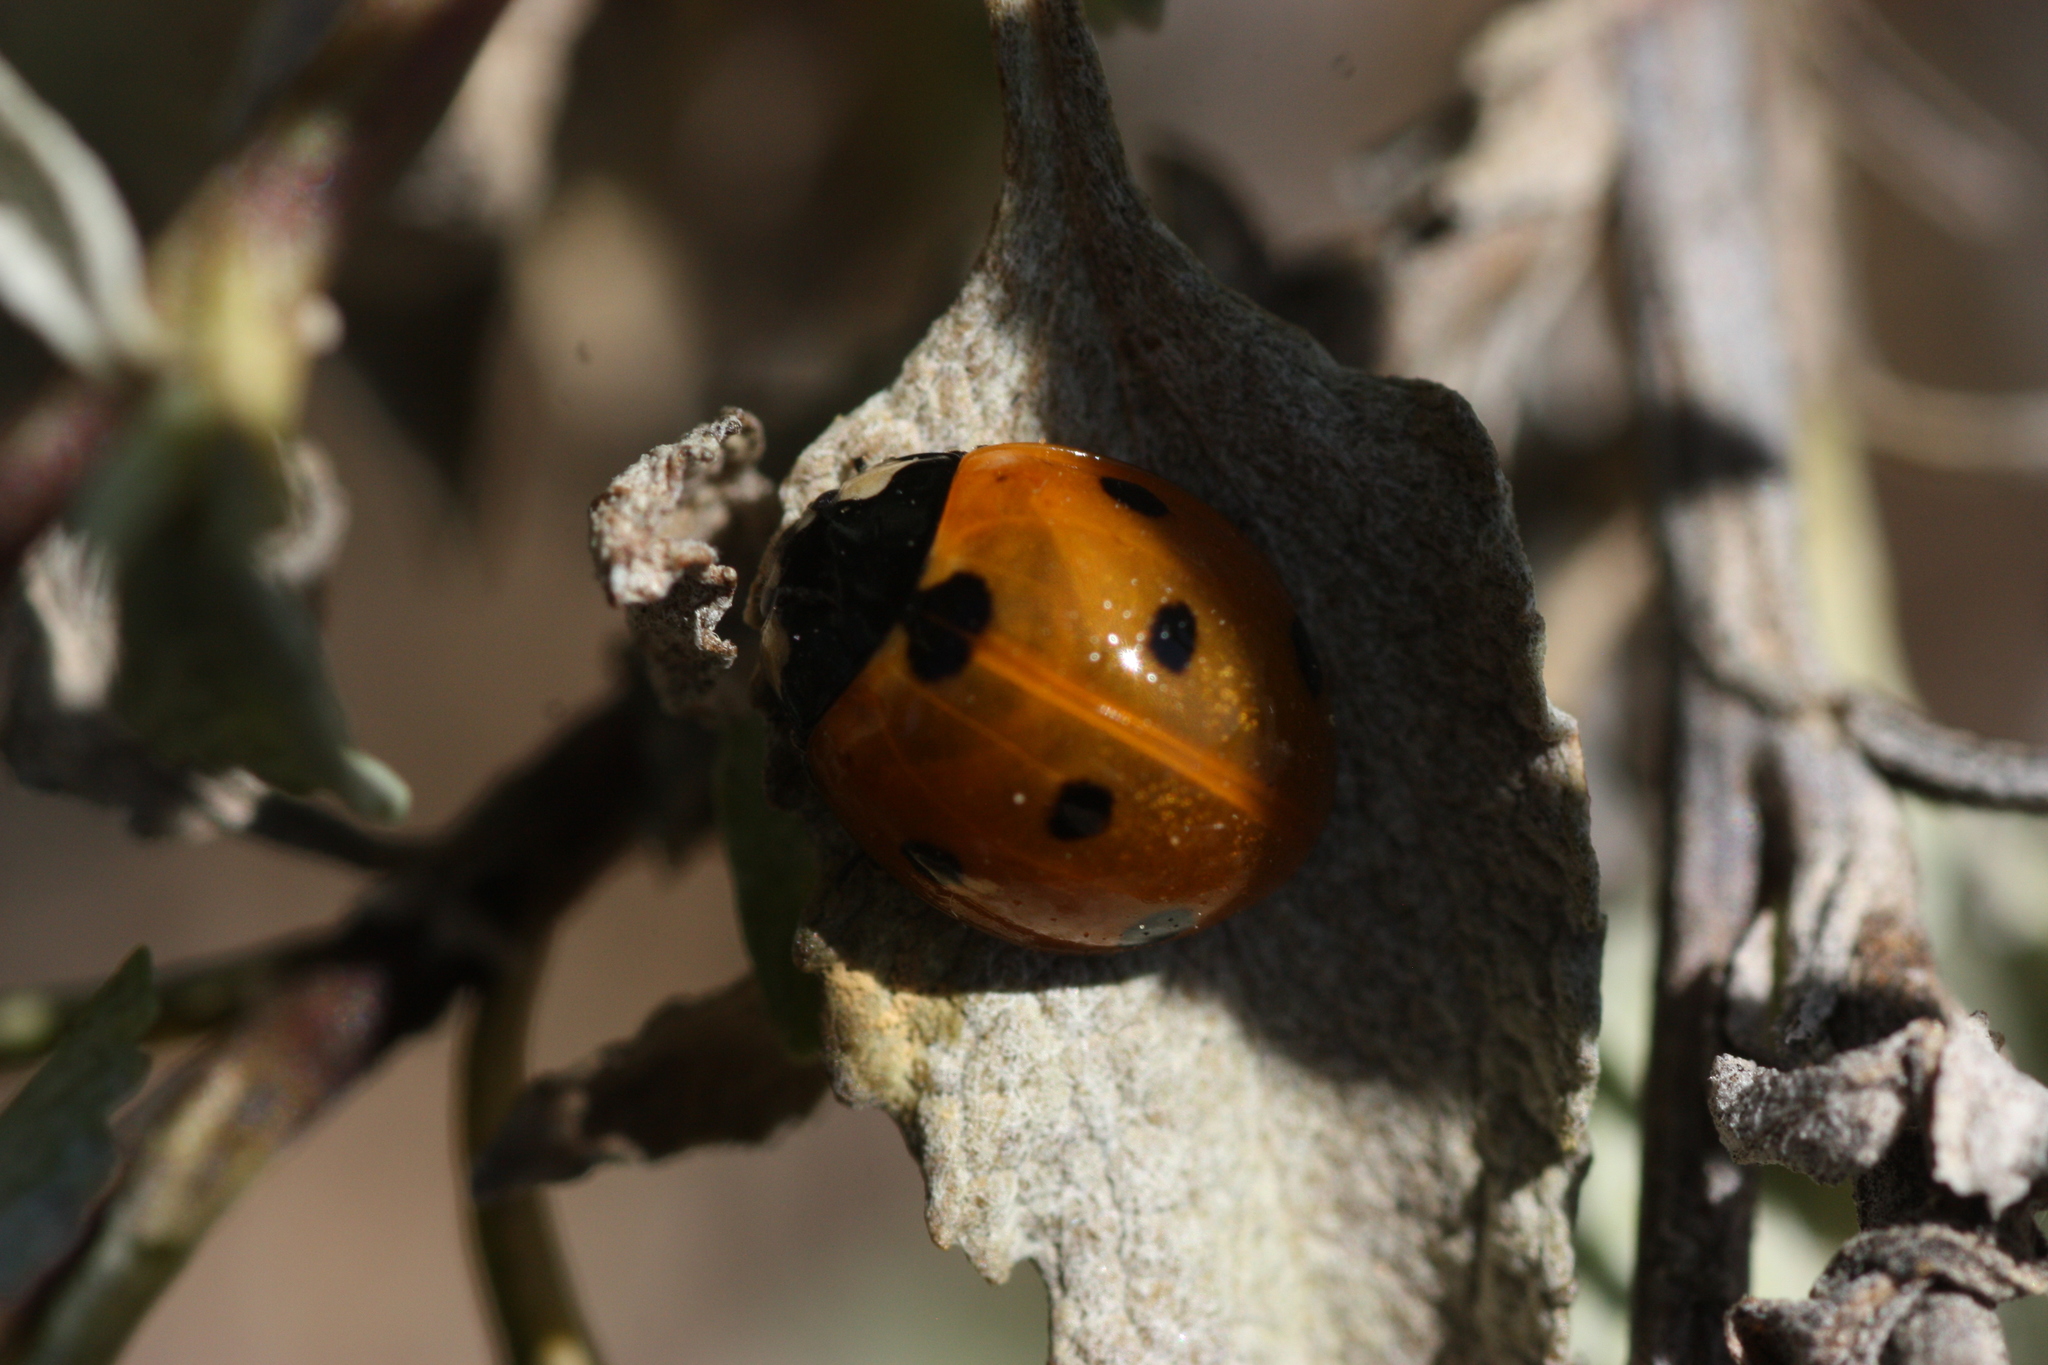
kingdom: Animalia
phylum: Arthropoda
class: Insecta
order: Coleoptera
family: Coccinellidae
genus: Coccinella
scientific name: Coccinella septempunctata
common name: Sevenspotted lady beetle
